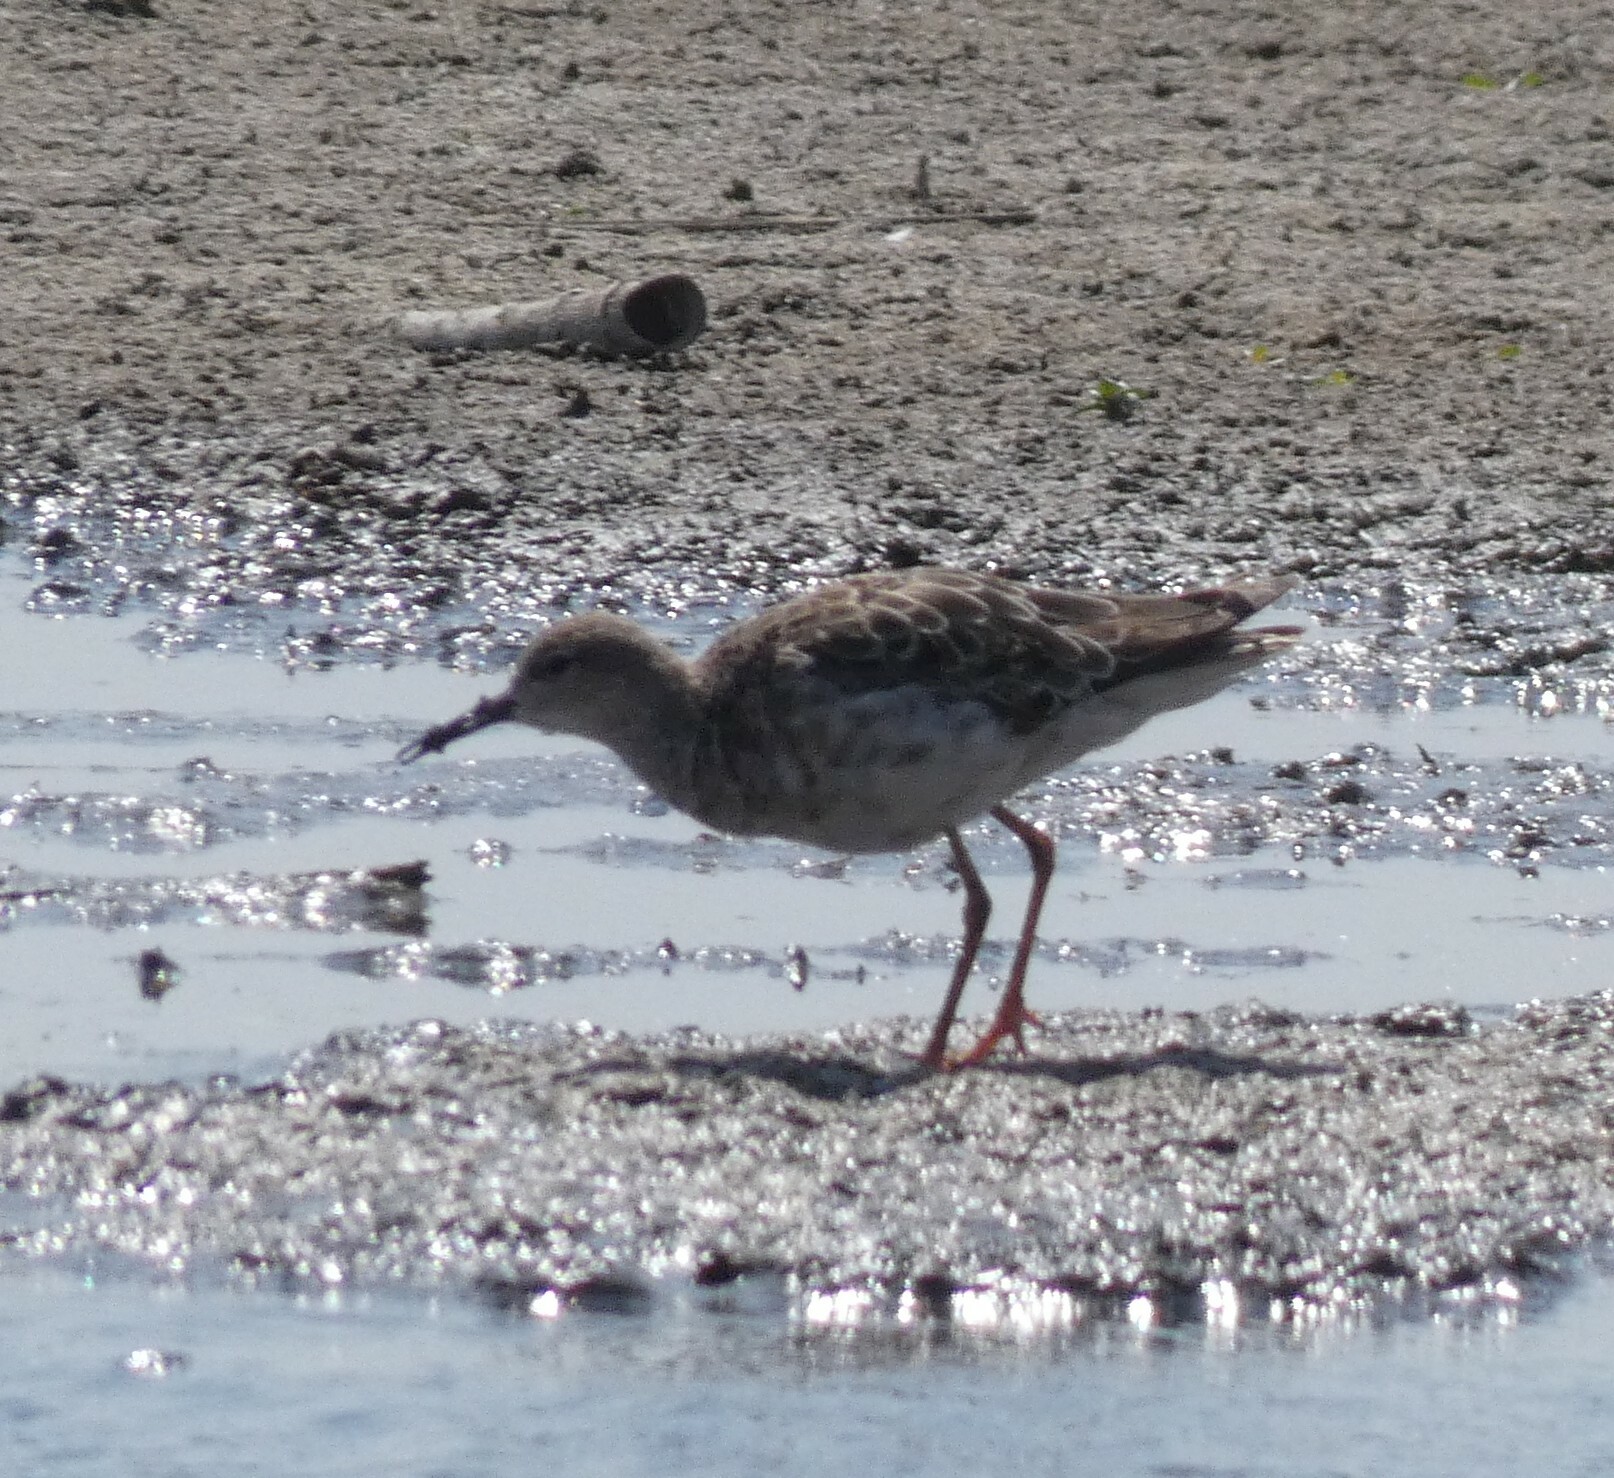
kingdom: Animalia
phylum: Chordata
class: Aves
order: Charadriiformes
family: Scolopacidae
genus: Calidris
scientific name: Calidris pugnax
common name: Ruff
